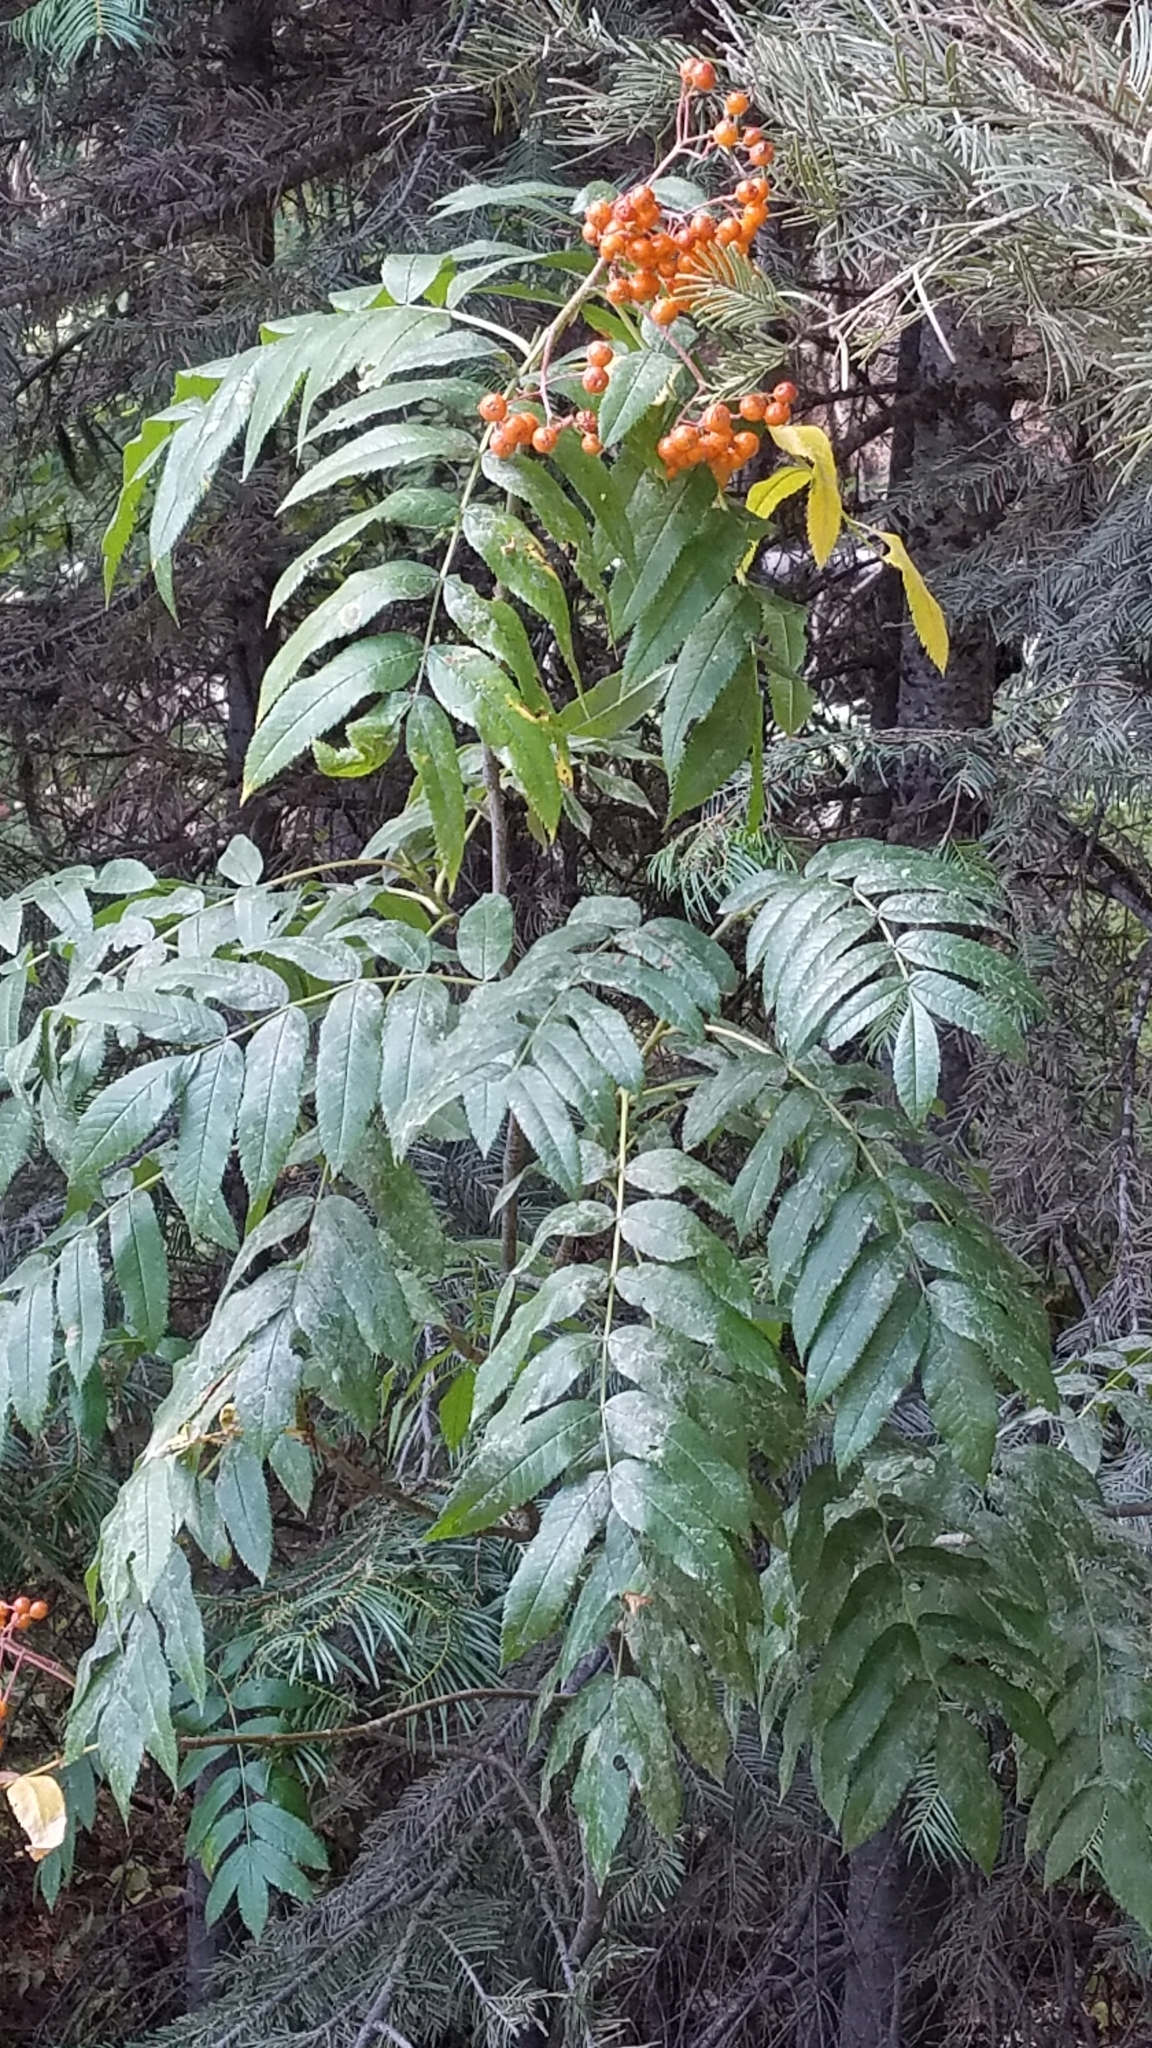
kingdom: Plantae
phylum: Tracheophyta
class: Magnoliopsida
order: Rosales
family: Rosaceae
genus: Sorbus
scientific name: Sorbus scopulina
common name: Greene's mountain-ash
